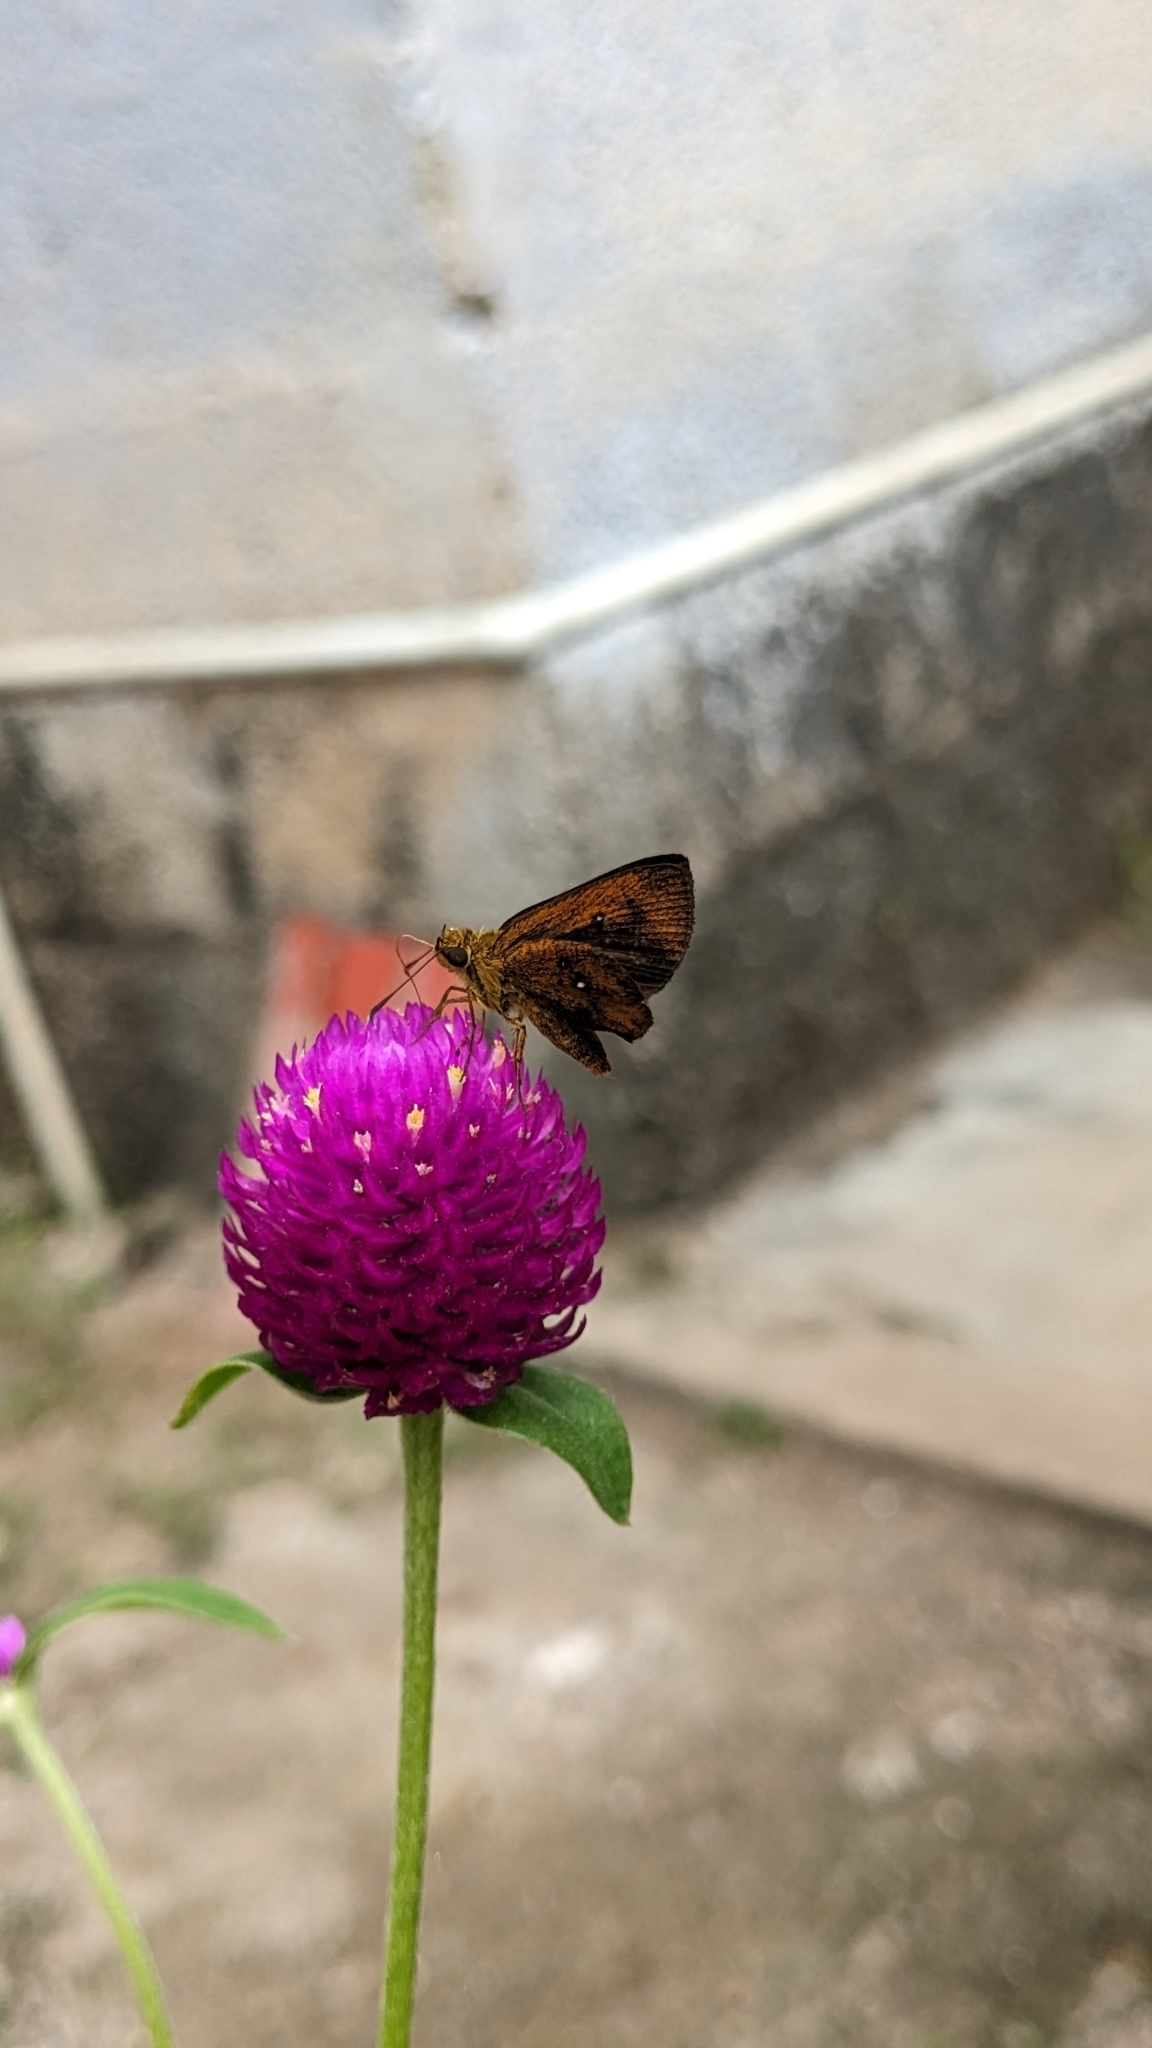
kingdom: Animalia
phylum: Arthropoda
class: Insecta
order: Lepidoptera
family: Hesperiidae
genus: Iambrix
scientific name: Iambrix salsala
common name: Chestnut bob
